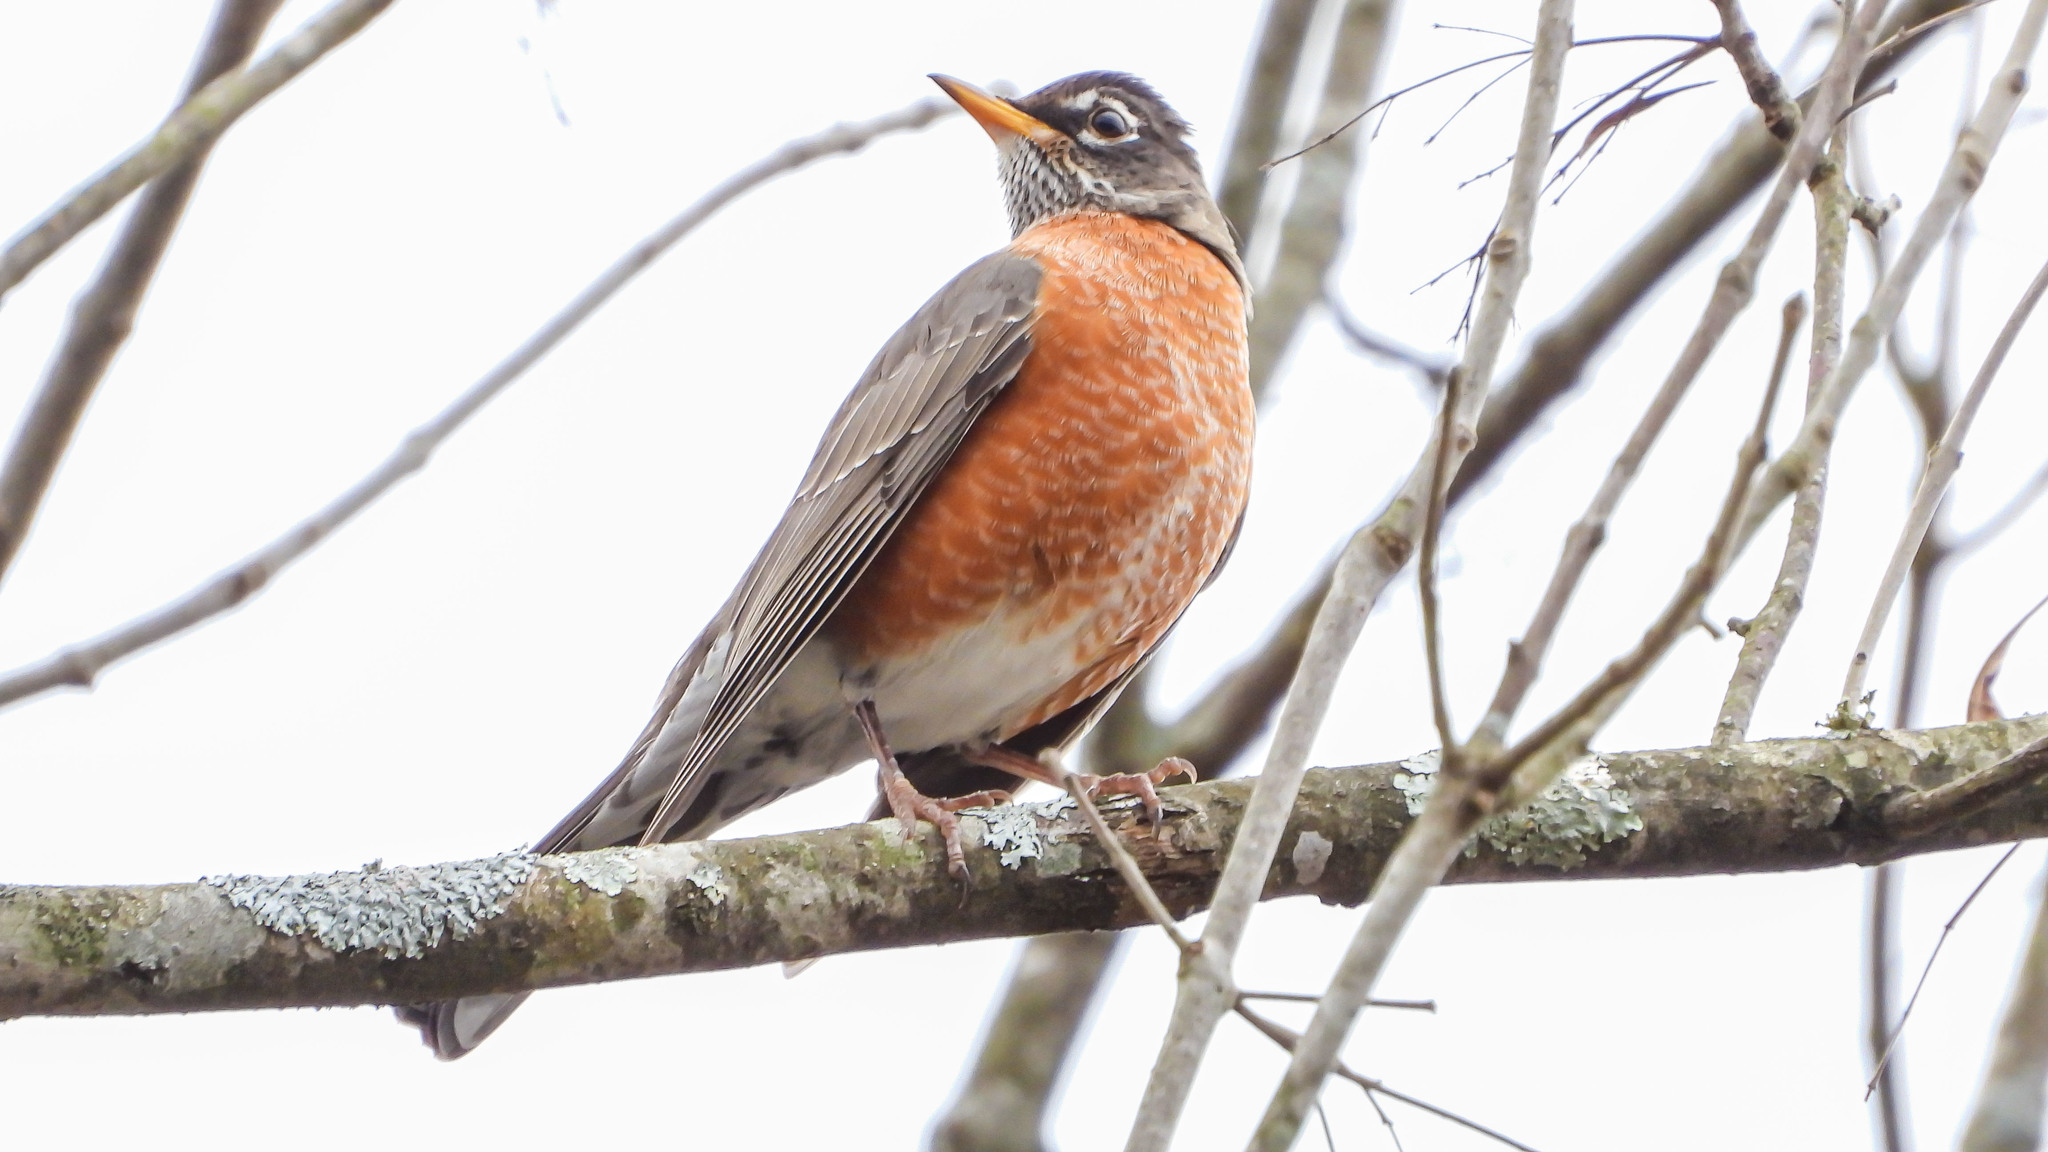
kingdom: Animalia
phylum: Chordata
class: Aves
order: Passeriformes
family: Turdidae
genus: Turdus
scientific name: Turdus migratorius
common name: American robin
